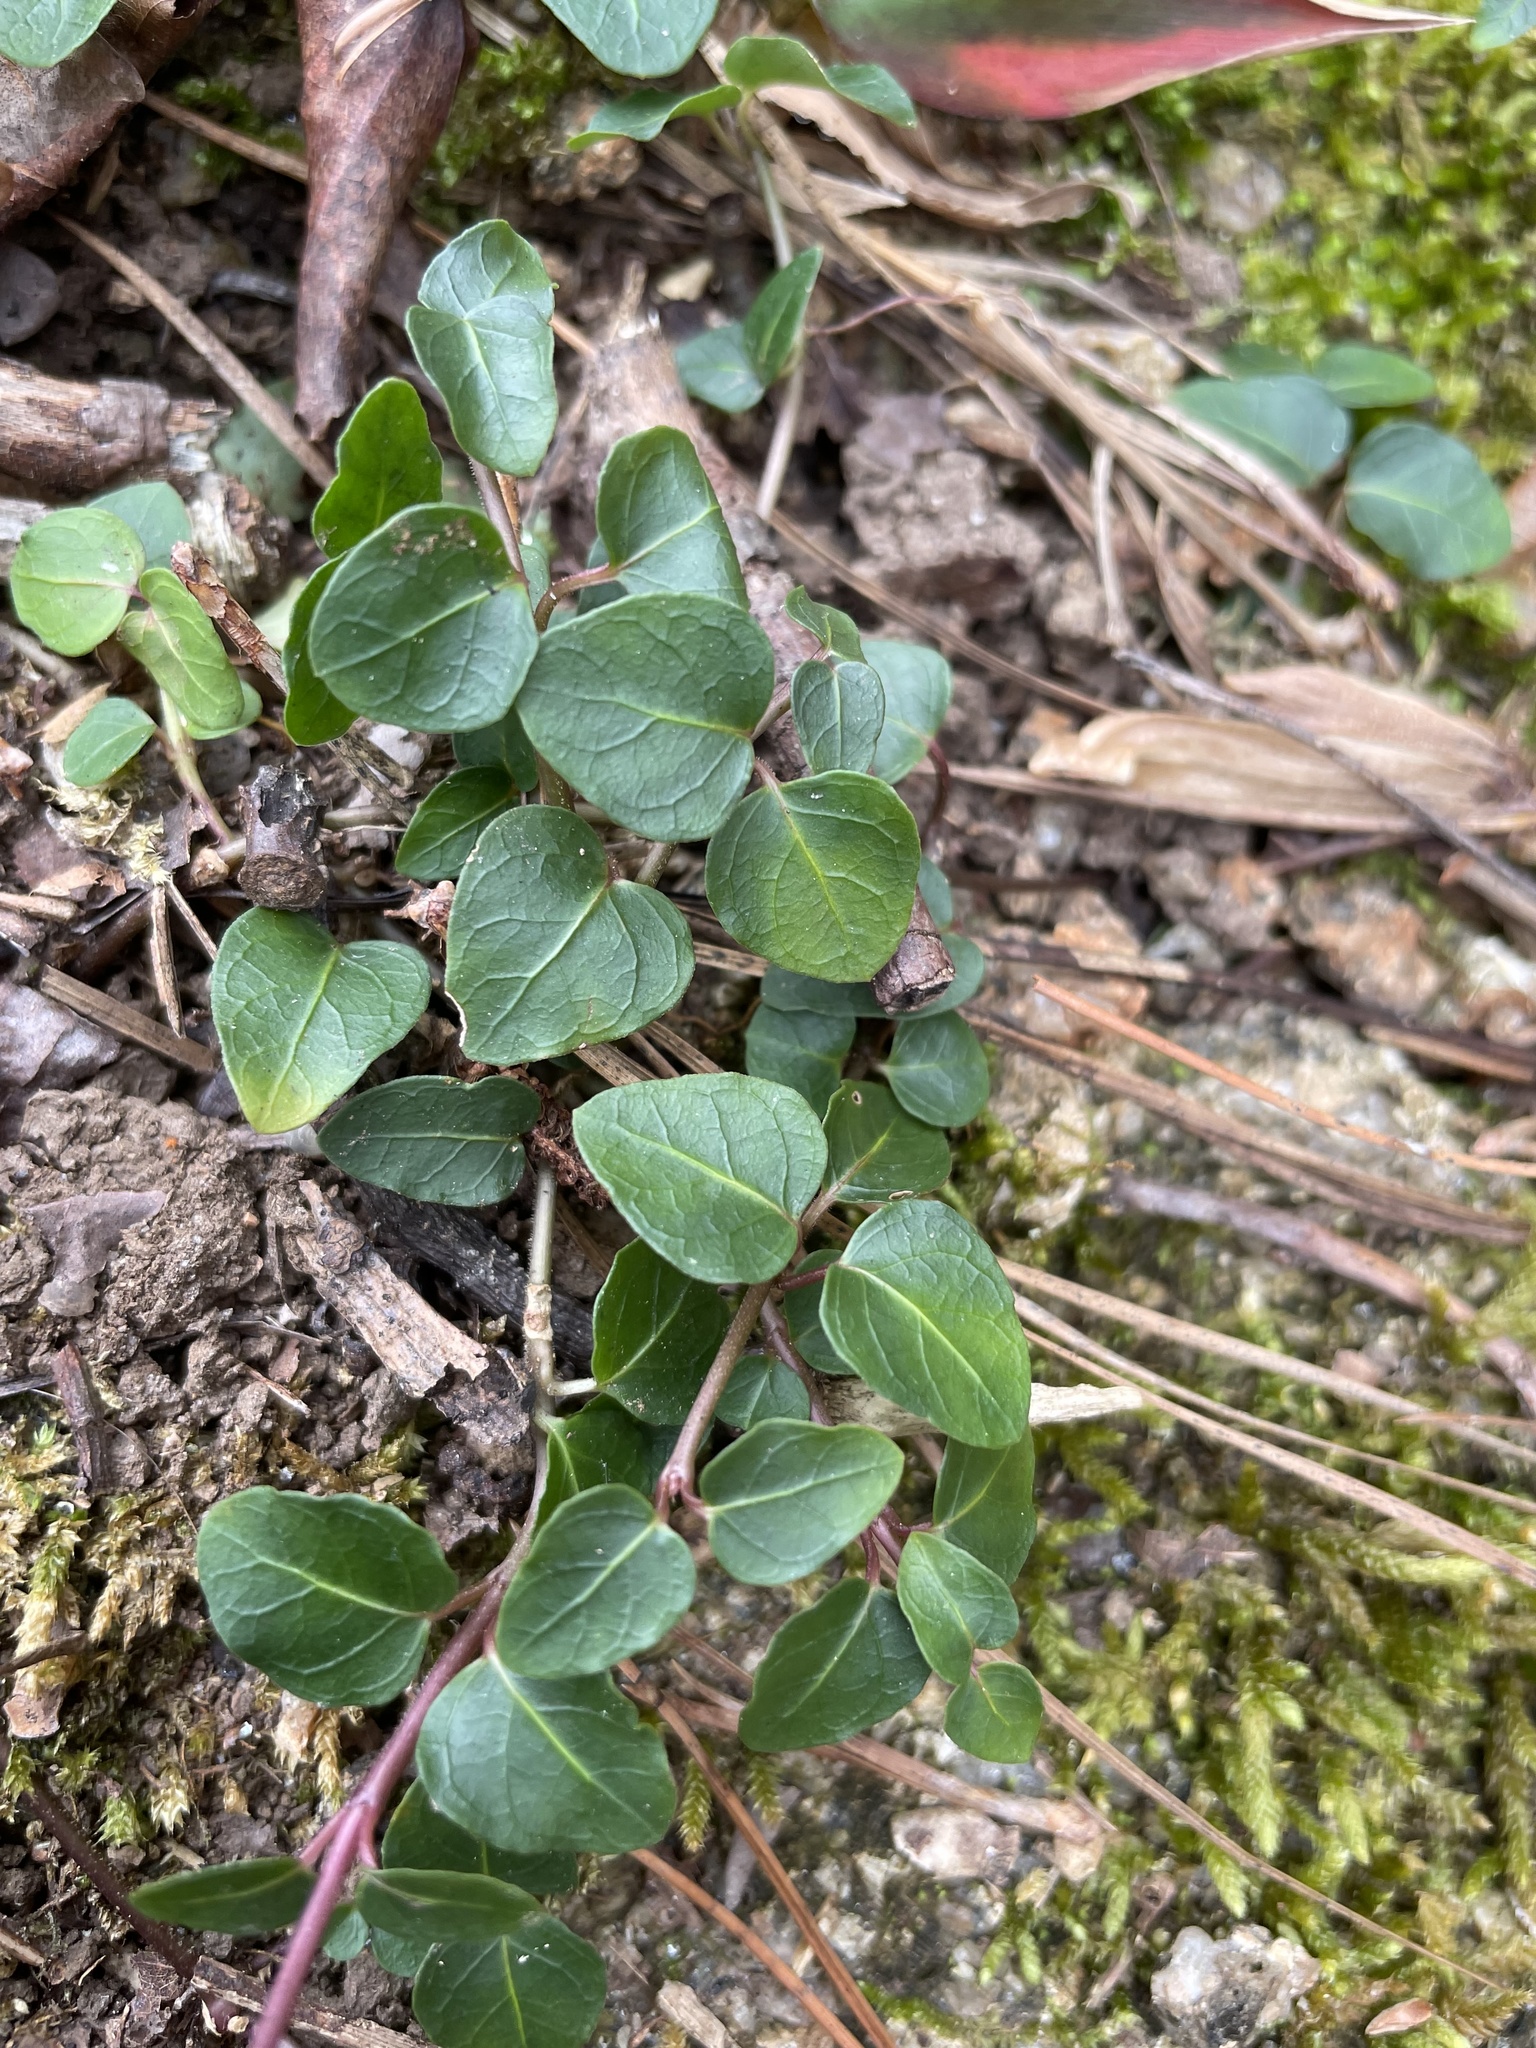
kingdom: Plantae
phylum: Tracheophyta
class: Magnoliopsida
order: Gentianales
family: Rubiaceae
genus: Mitchella
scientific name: Mitchella repens
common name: Partridge-berry
